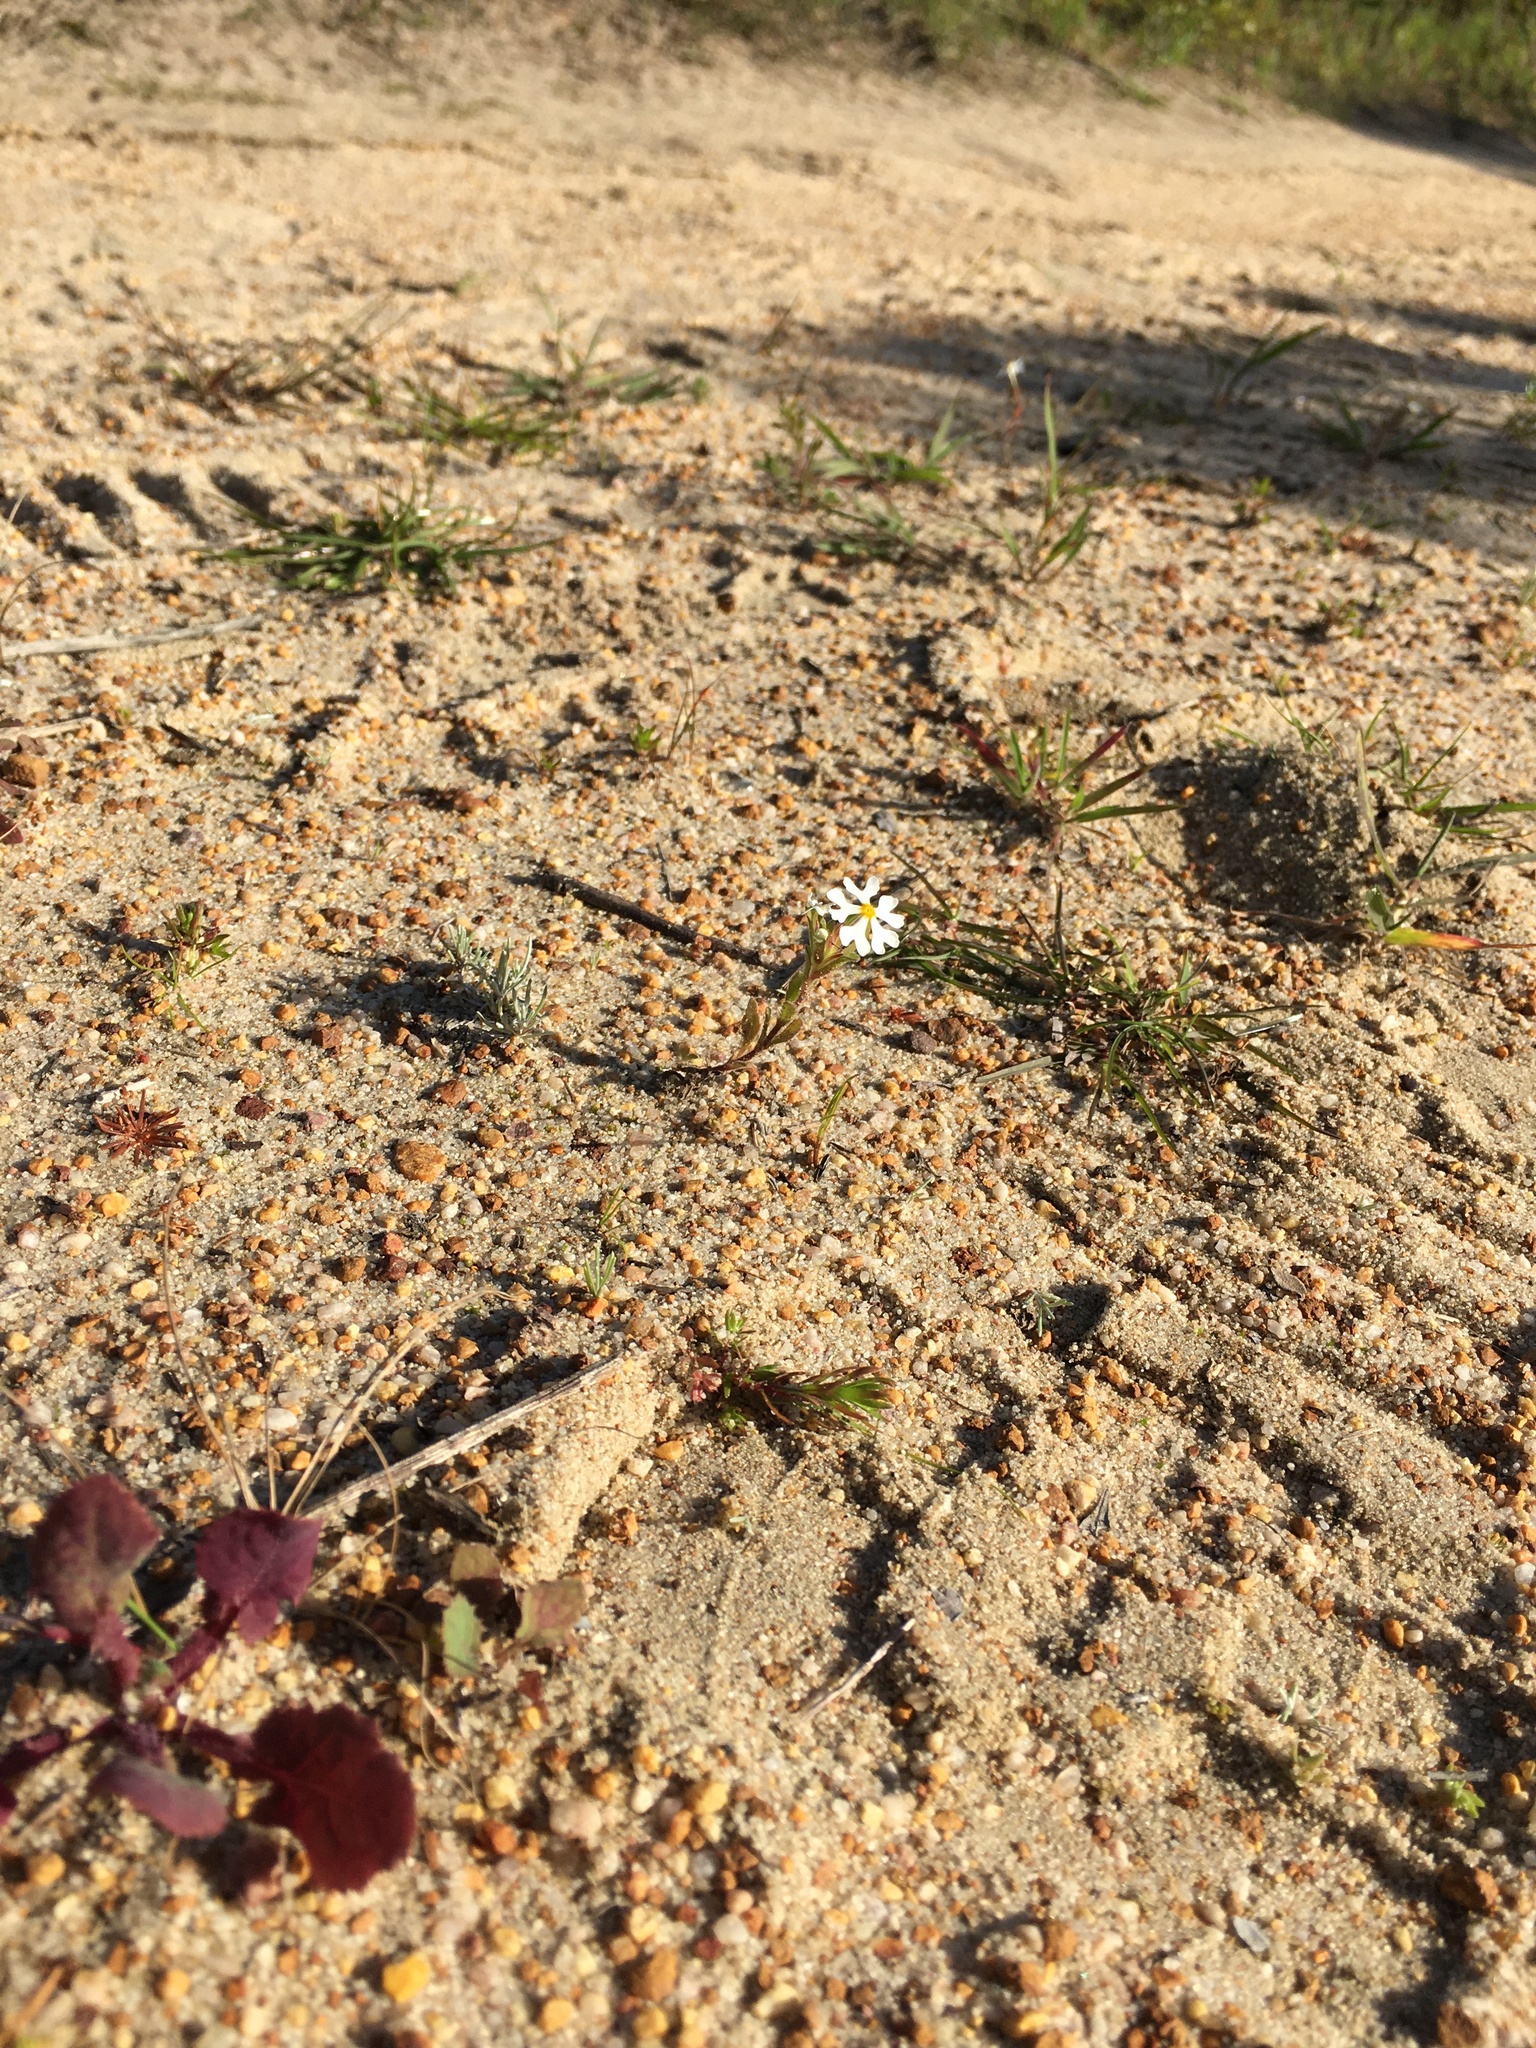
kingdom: Plantae
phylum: Tracheophyta
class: Magnoliopsida
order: Lamiales
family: Scrophulariaceae
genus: Zaluzianskya
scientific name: Zaluzianskya villosa
